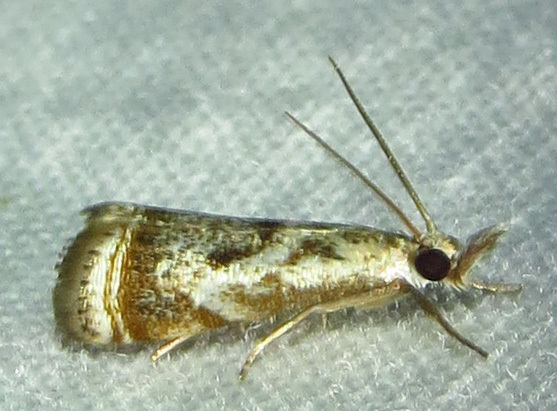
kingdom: Animalia
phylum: Arthropoda
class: Insecta
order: Lepidoptera
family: Crambidae
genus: Microcrambus
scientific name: Microcrambus elegans
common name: Elegant grass-veneer
